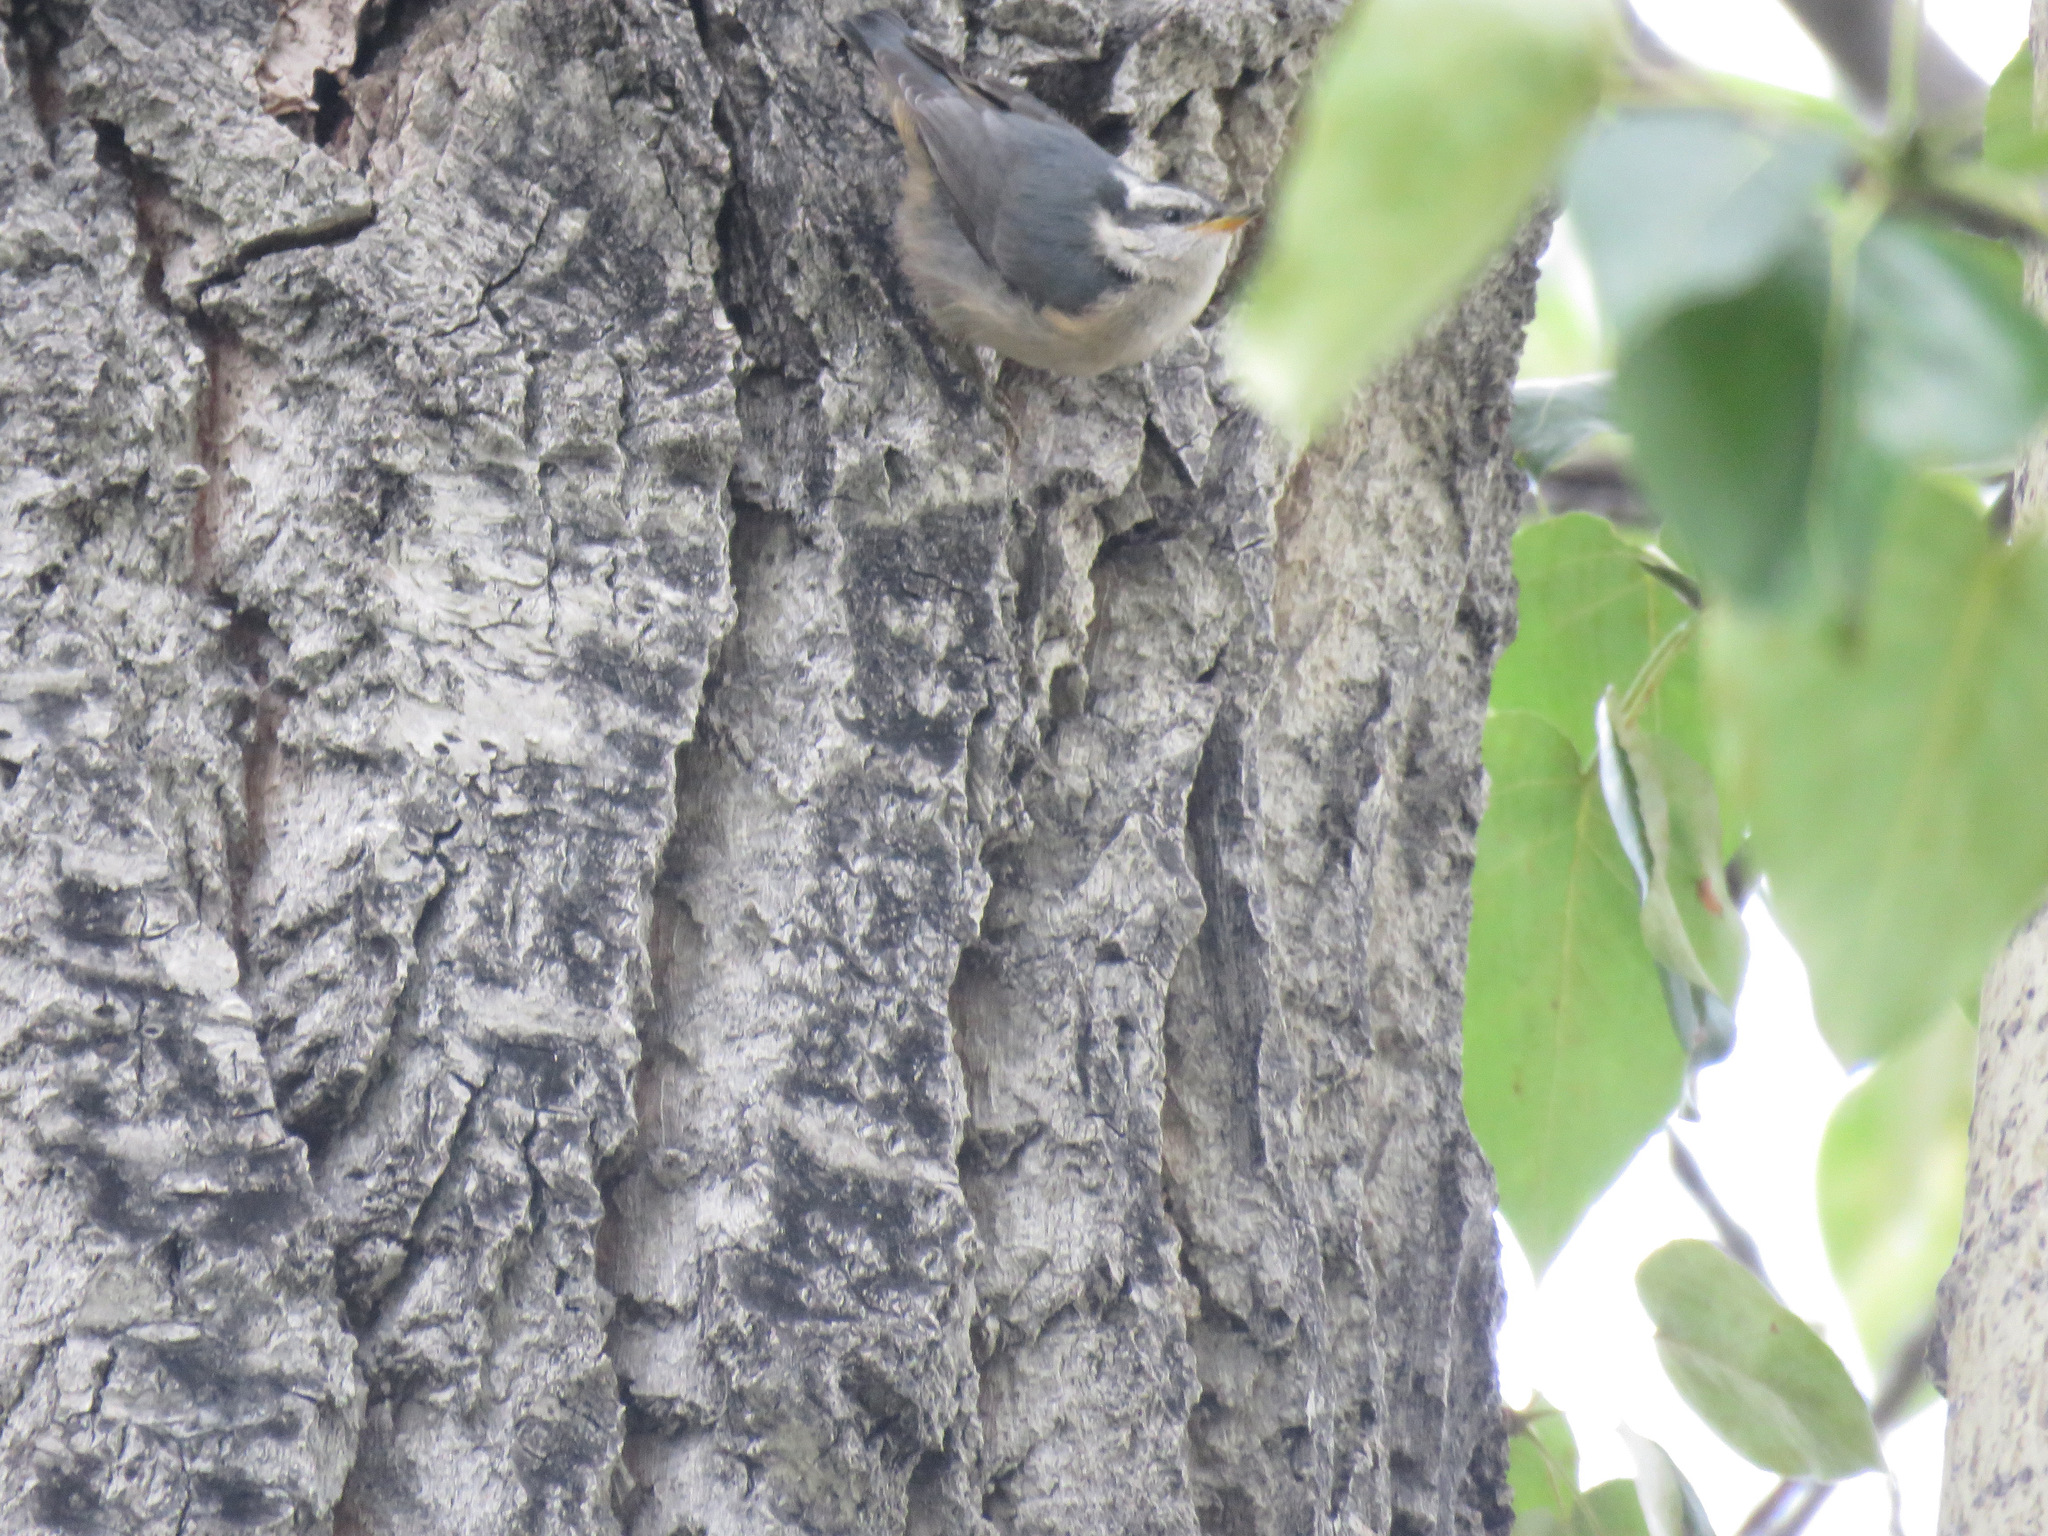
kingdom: Animalia
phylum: Chordata
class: Aves
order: Passeriformes
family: Sittidae
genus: Sitta
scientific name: Sitta canadensis
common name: Red-breasted nuthatch
